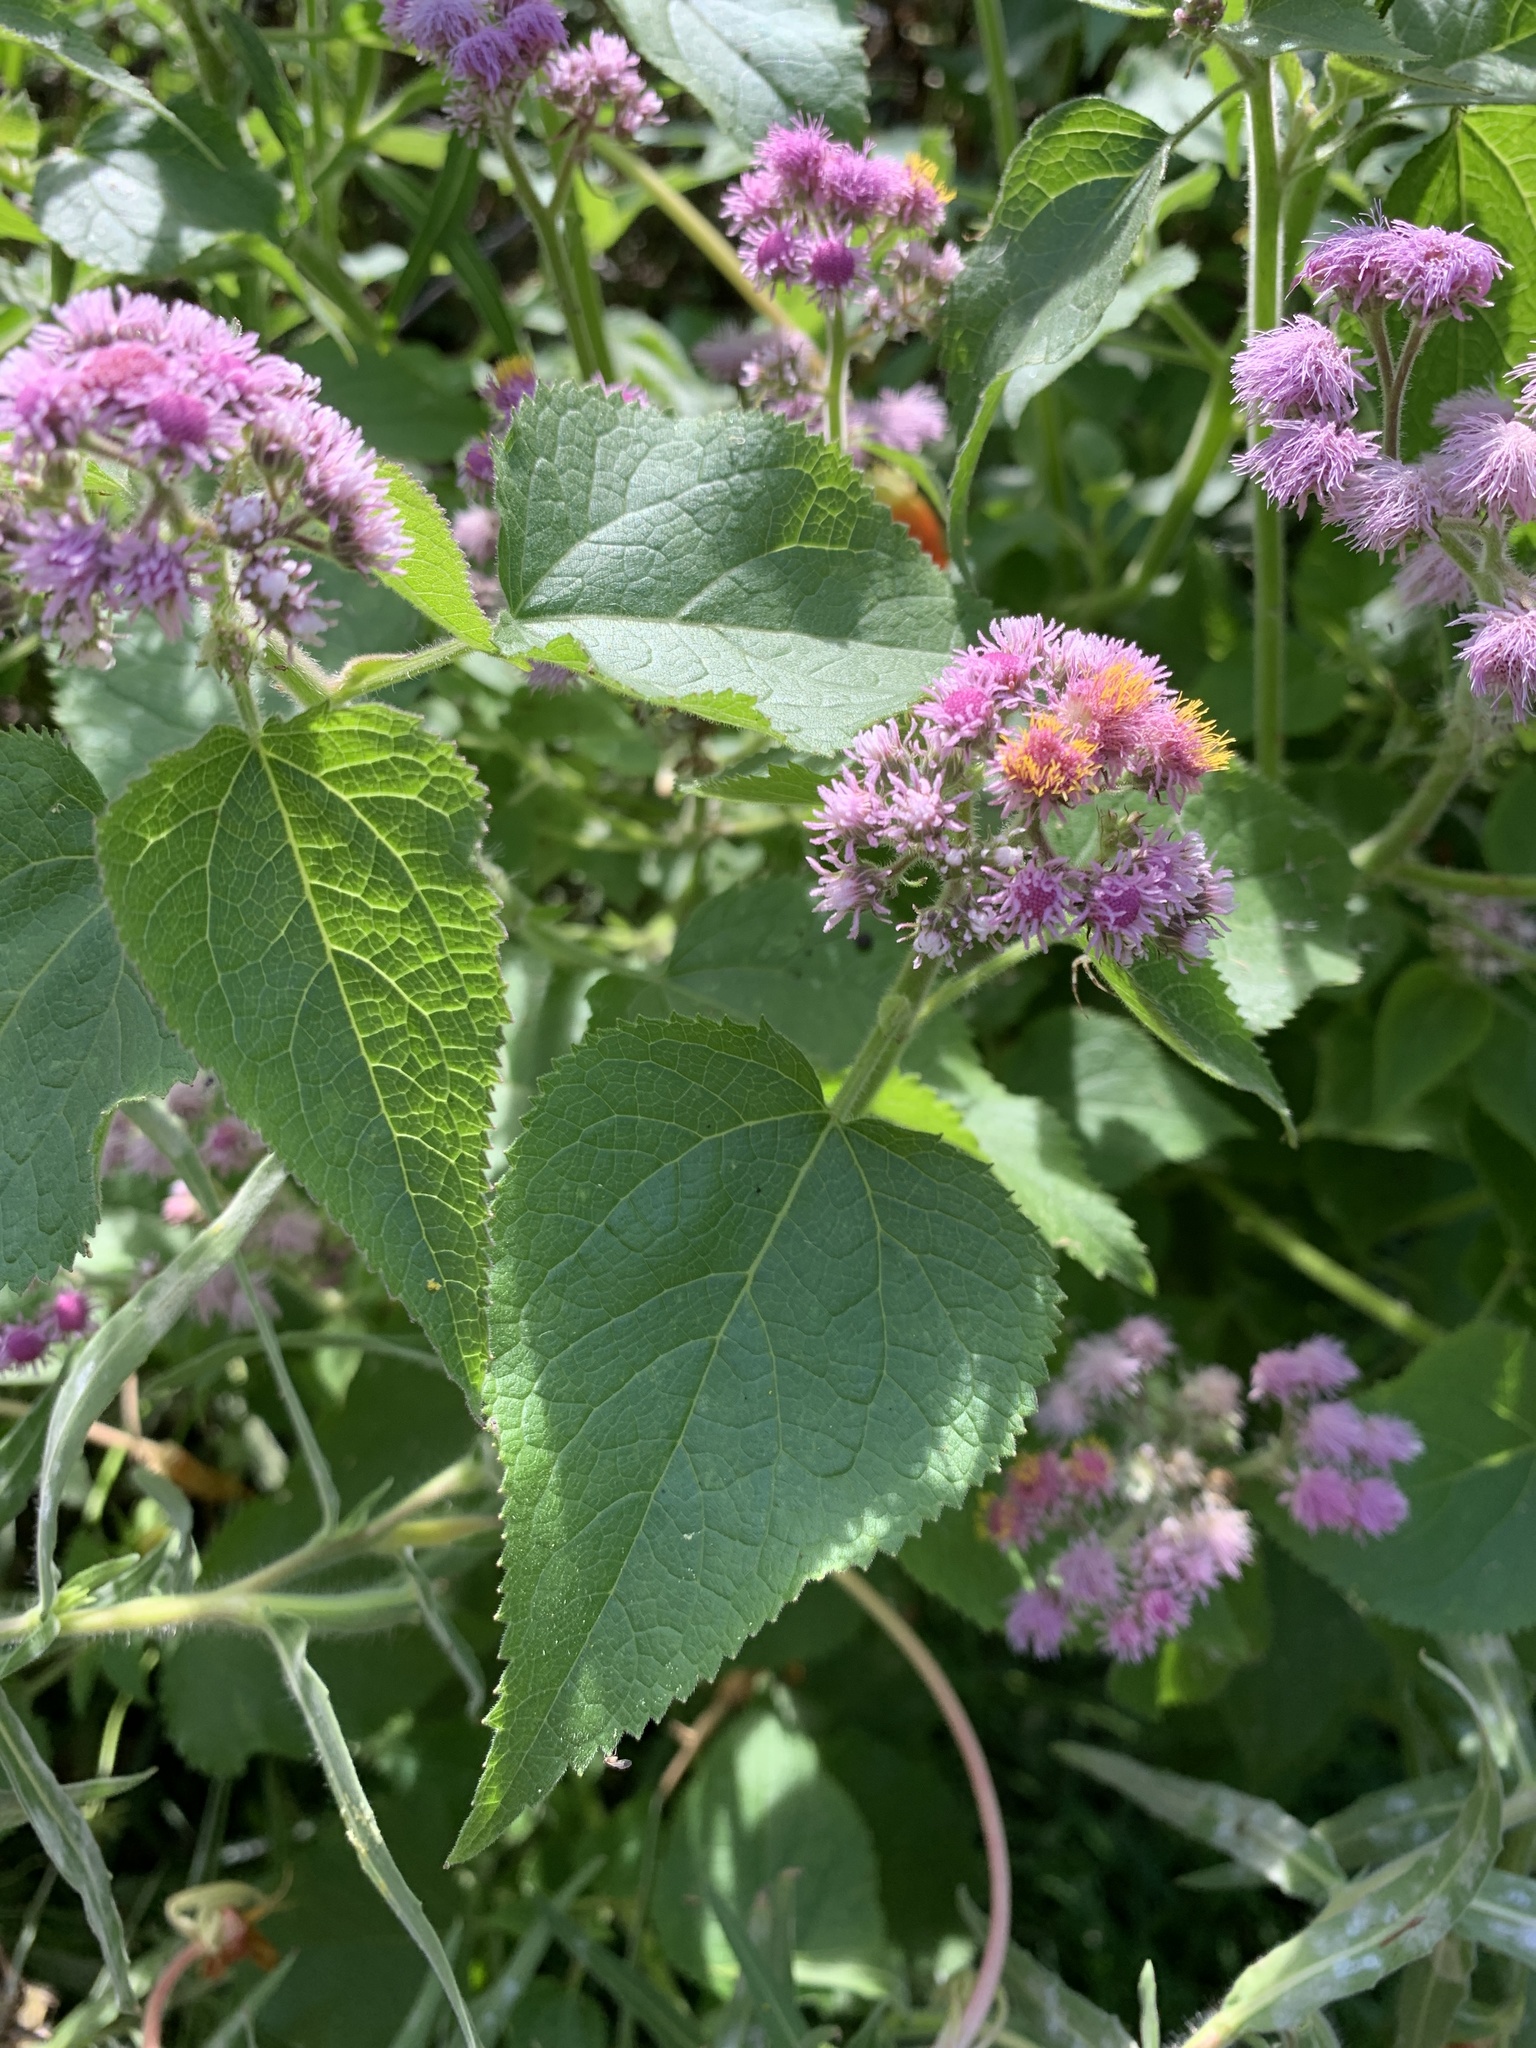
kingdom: Plantae
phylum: Tracheophyta
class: Magnoliopsida
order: Asterales
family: Asteraceae
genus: Urolepis
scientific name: Urolepis hecatantha
